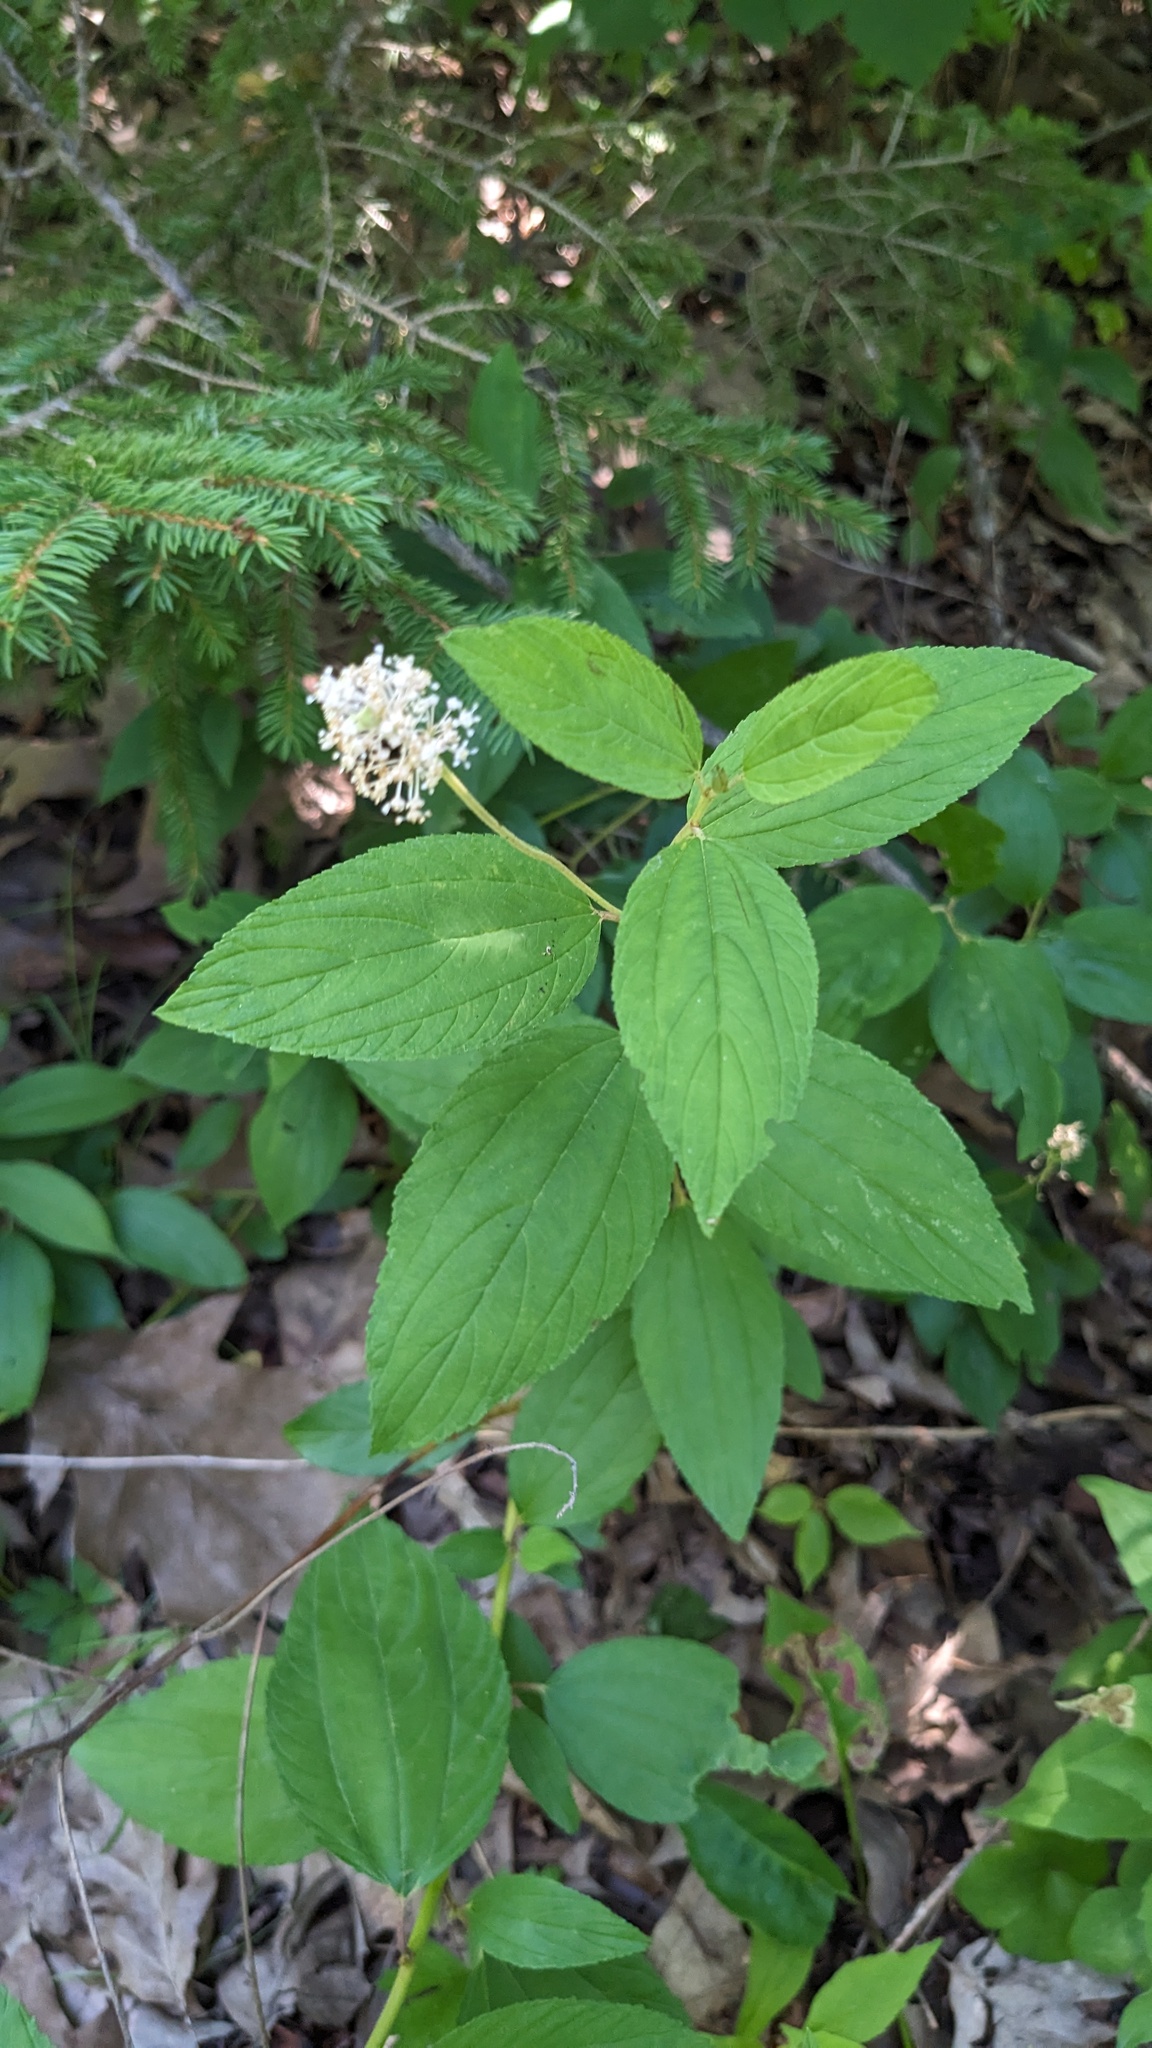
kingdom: Plantae
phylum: Tracheophyta
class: Magnoliopsida
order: Rosales
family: Rhamnaceae
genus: Ceanothus
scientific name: Ceanothus americanus
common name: Redroot
